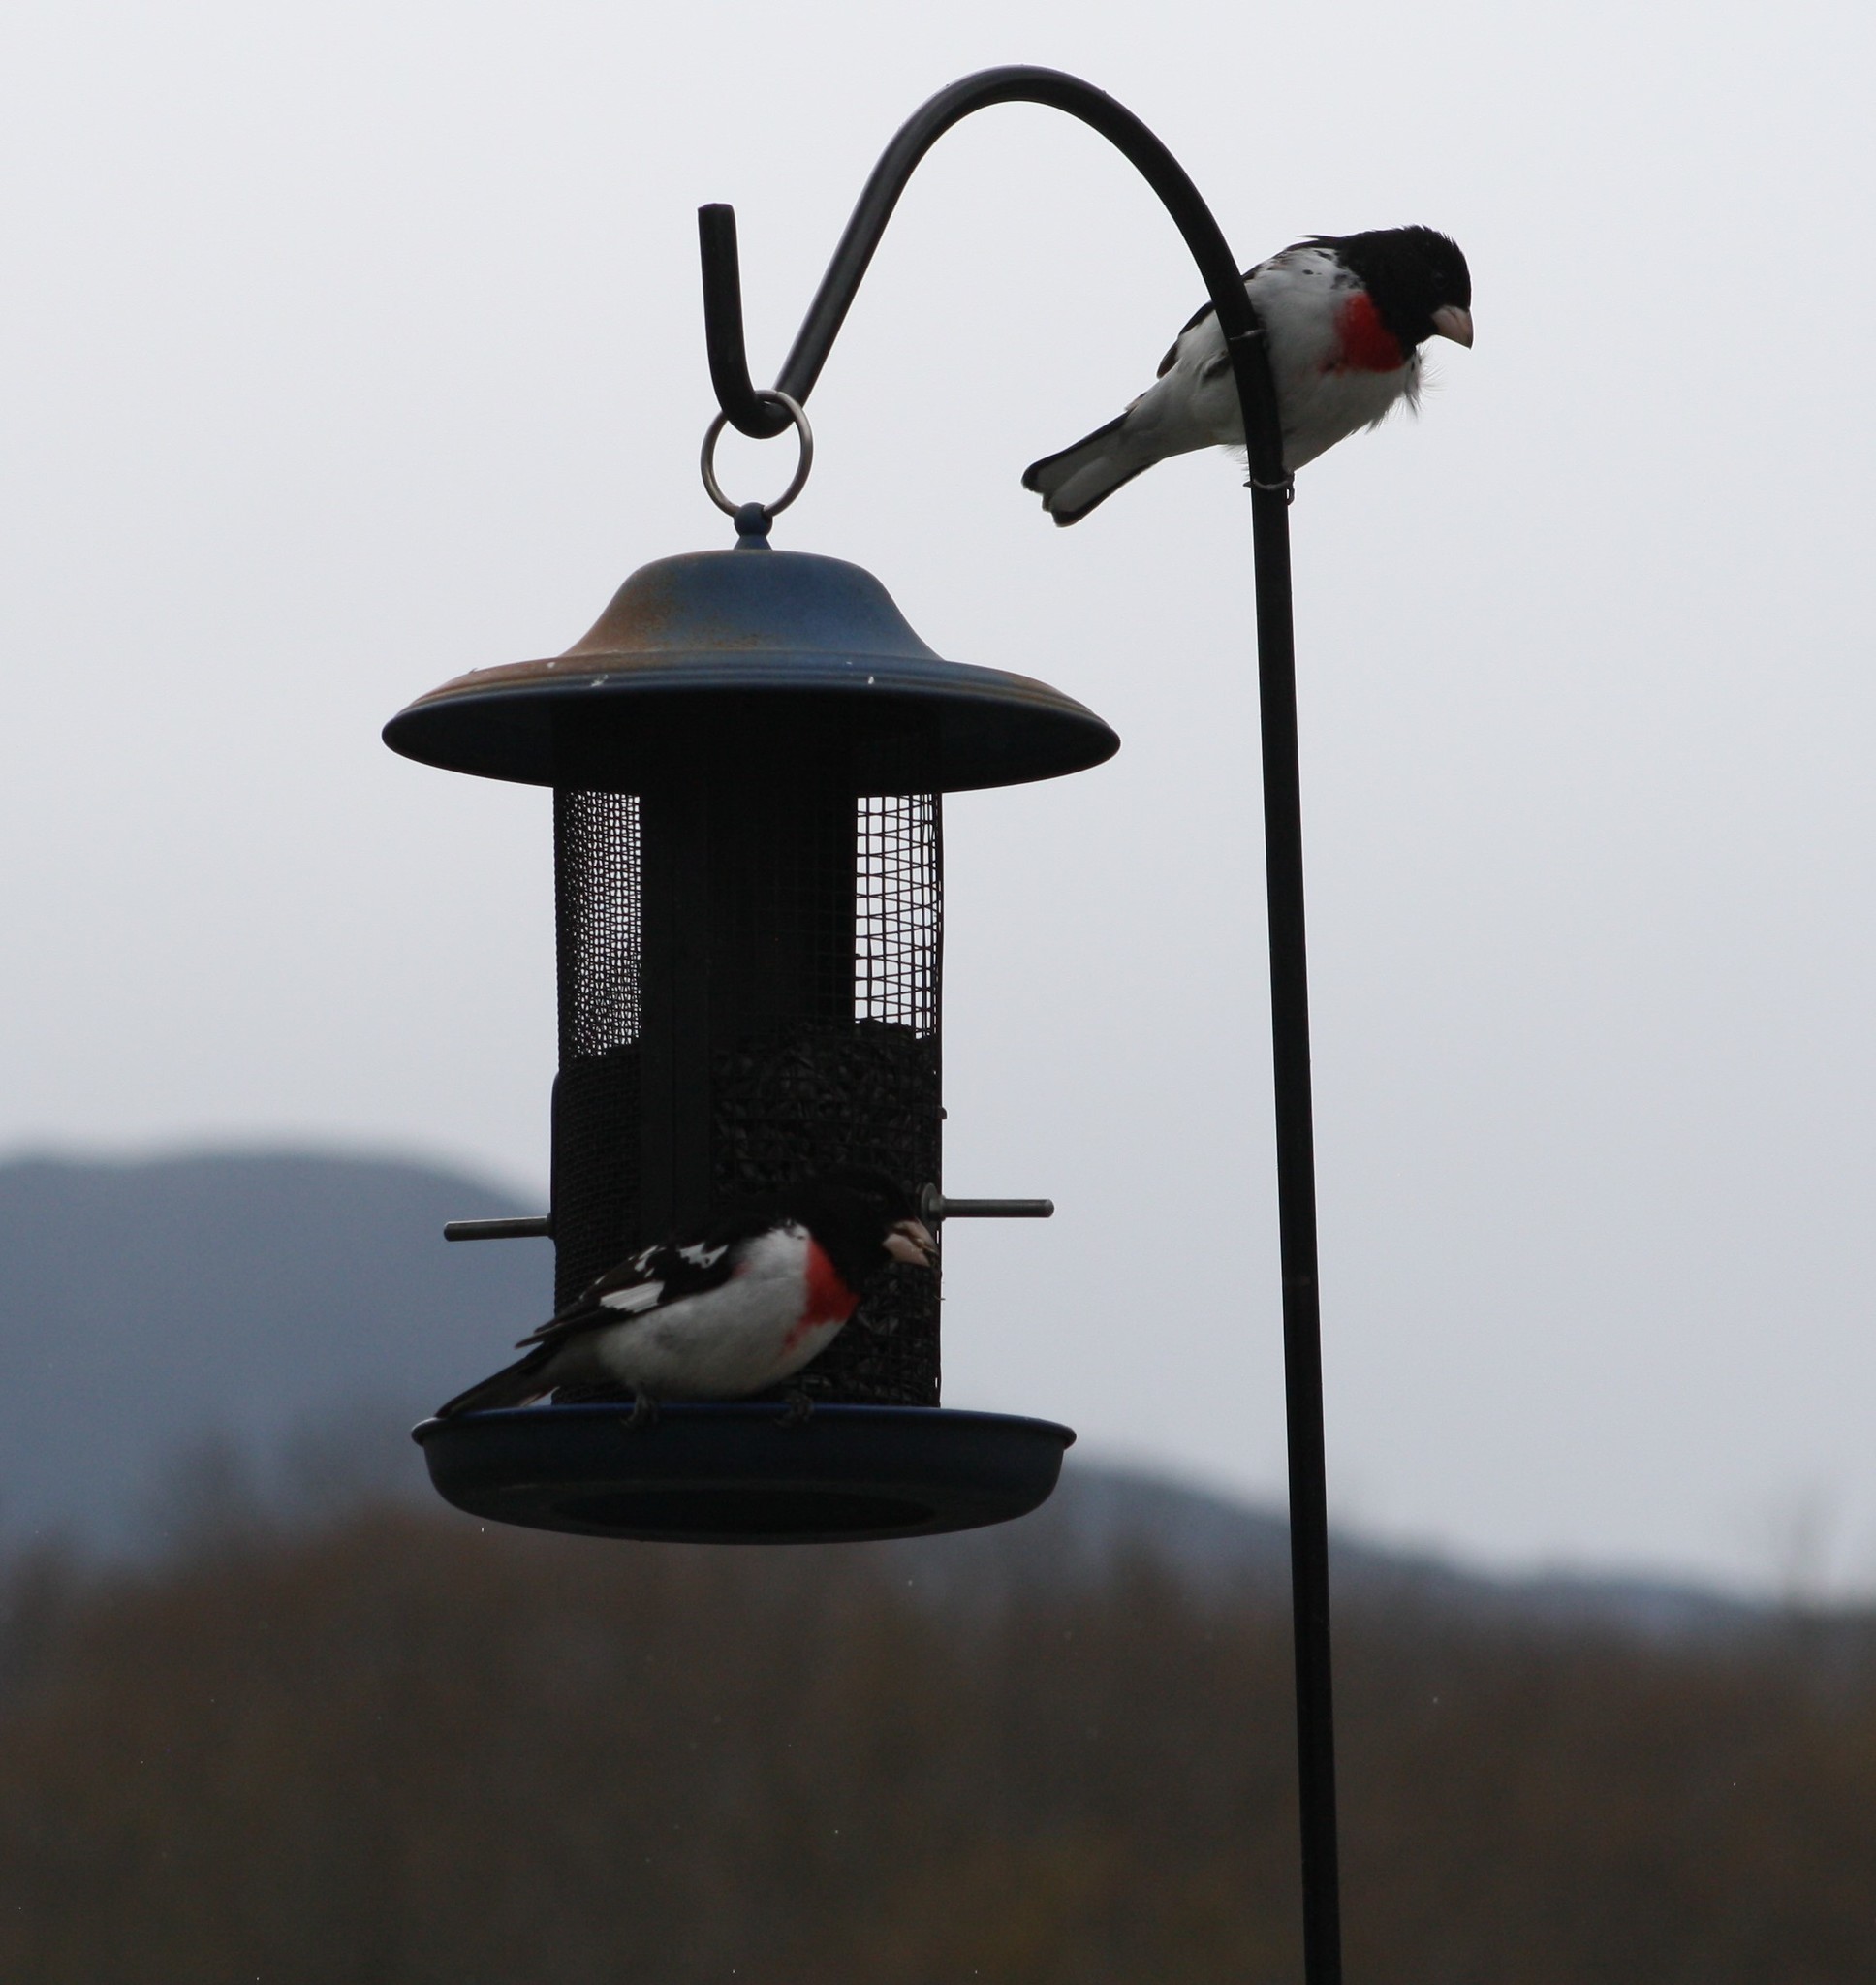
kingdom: Animalia
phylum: Chordata
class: Aves
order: Passeriformes
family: Cardinalidae
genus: Pheucticus
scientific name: Pheucticus ludovicianus
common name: Rose-breasted grosbeak
